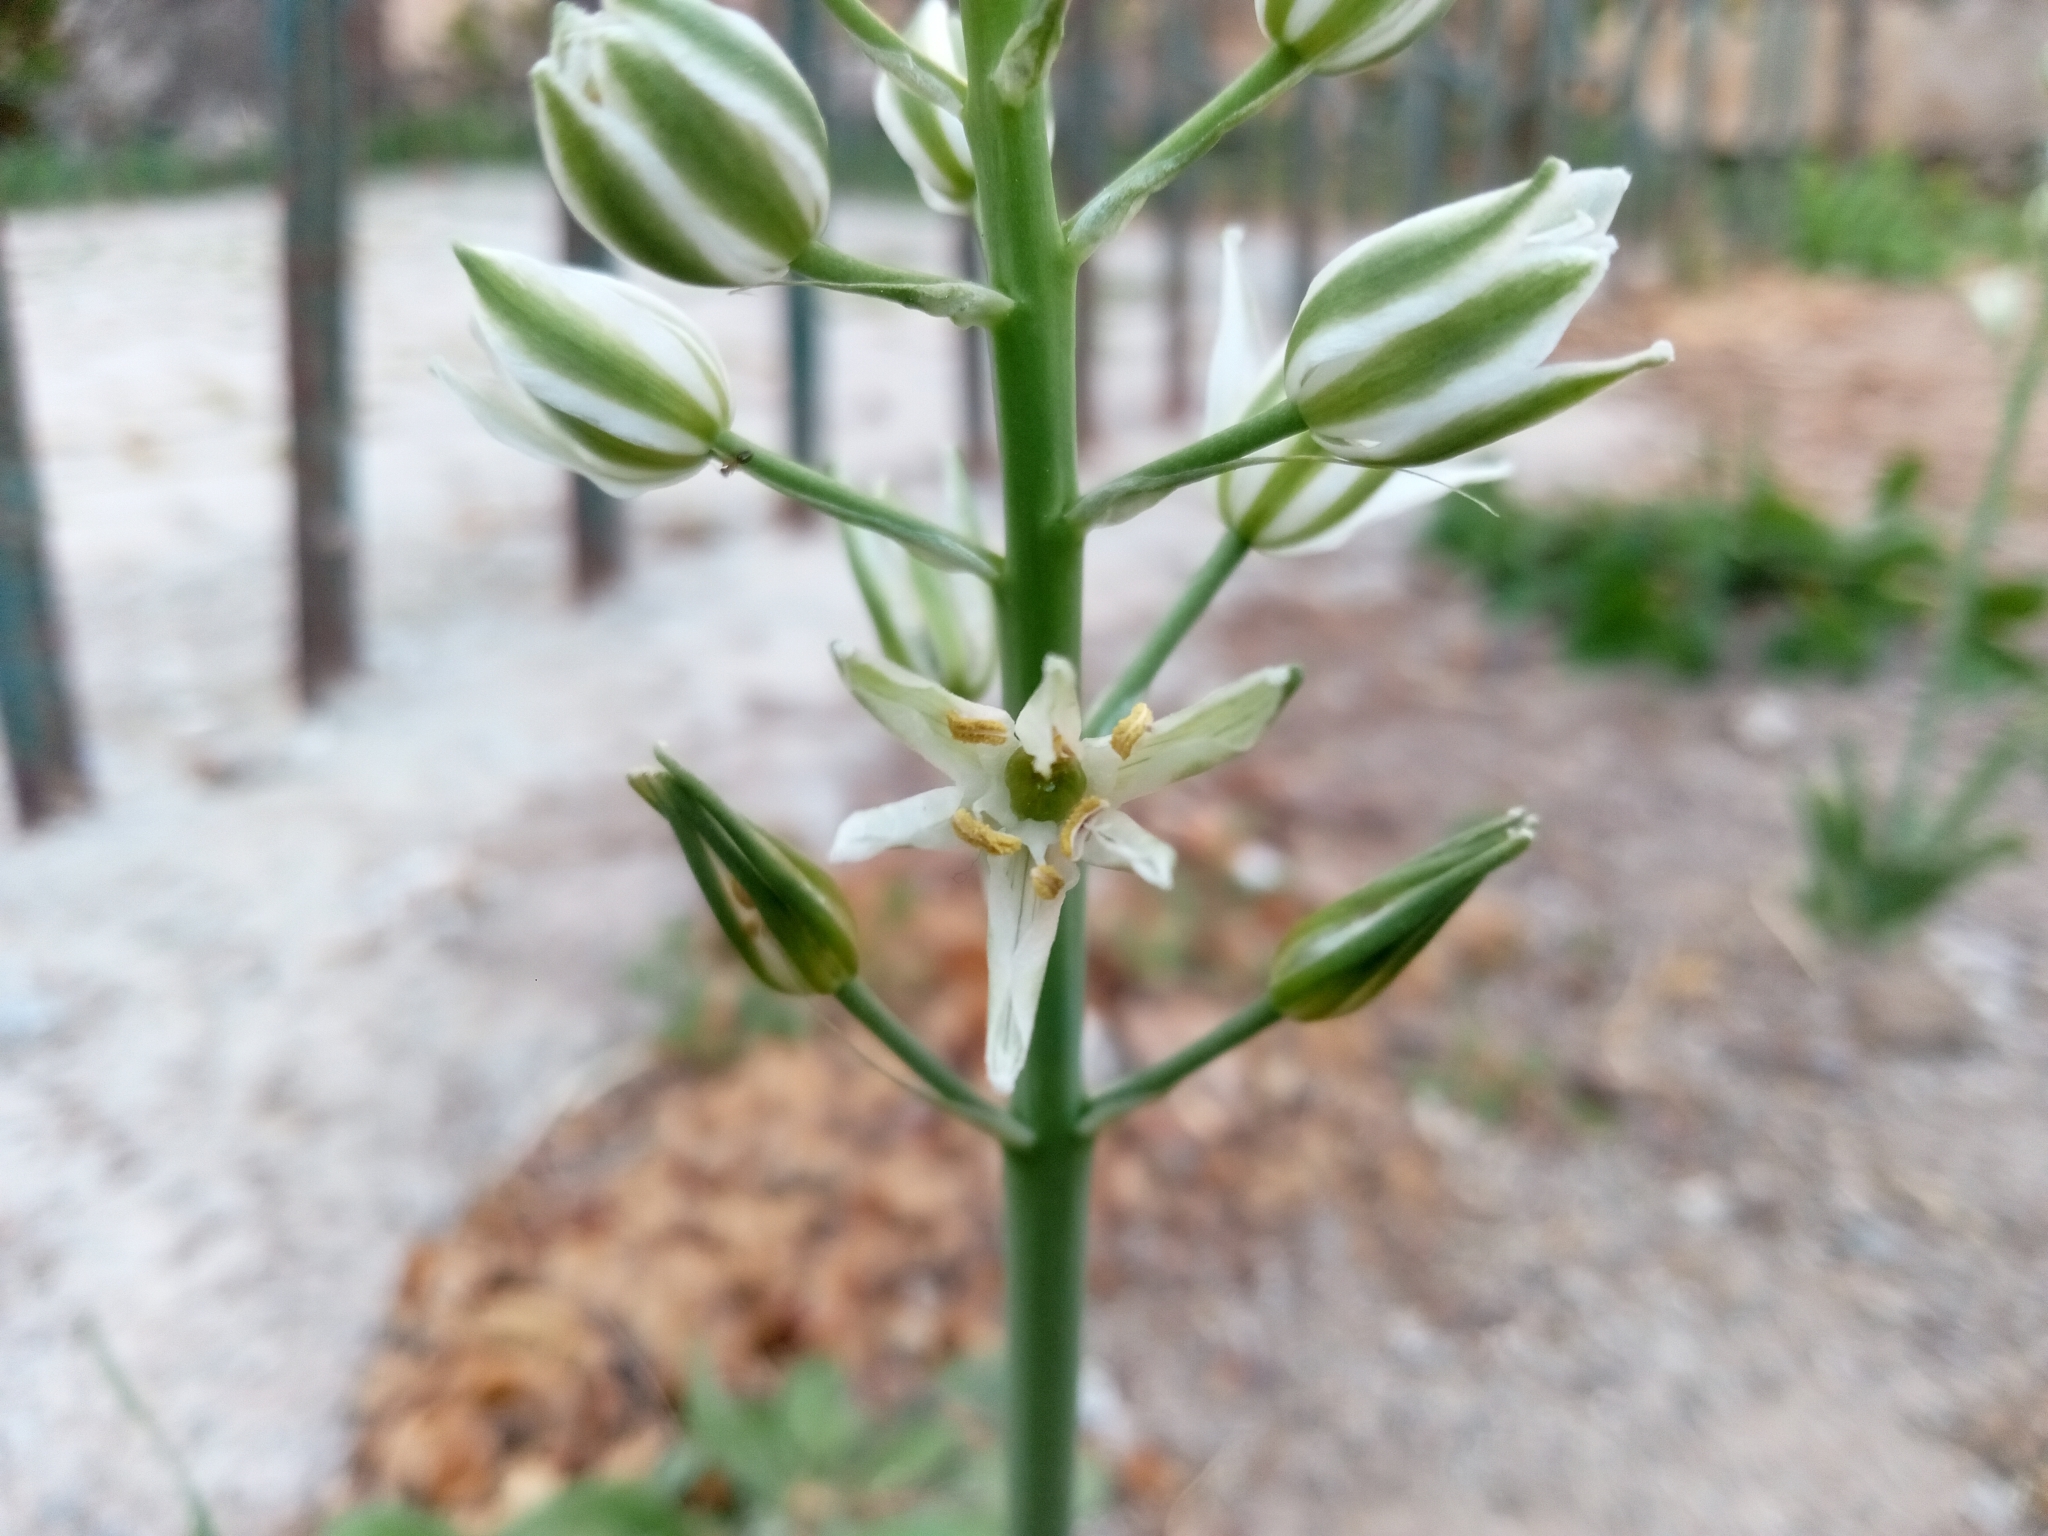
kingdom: Plantae
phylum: Tracheophyta
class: Liliopsida
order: Asparagales
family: Asparagaceae
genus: Ornithogalum
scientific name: Ornithogalum narbonense
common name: Bath-asparagus
